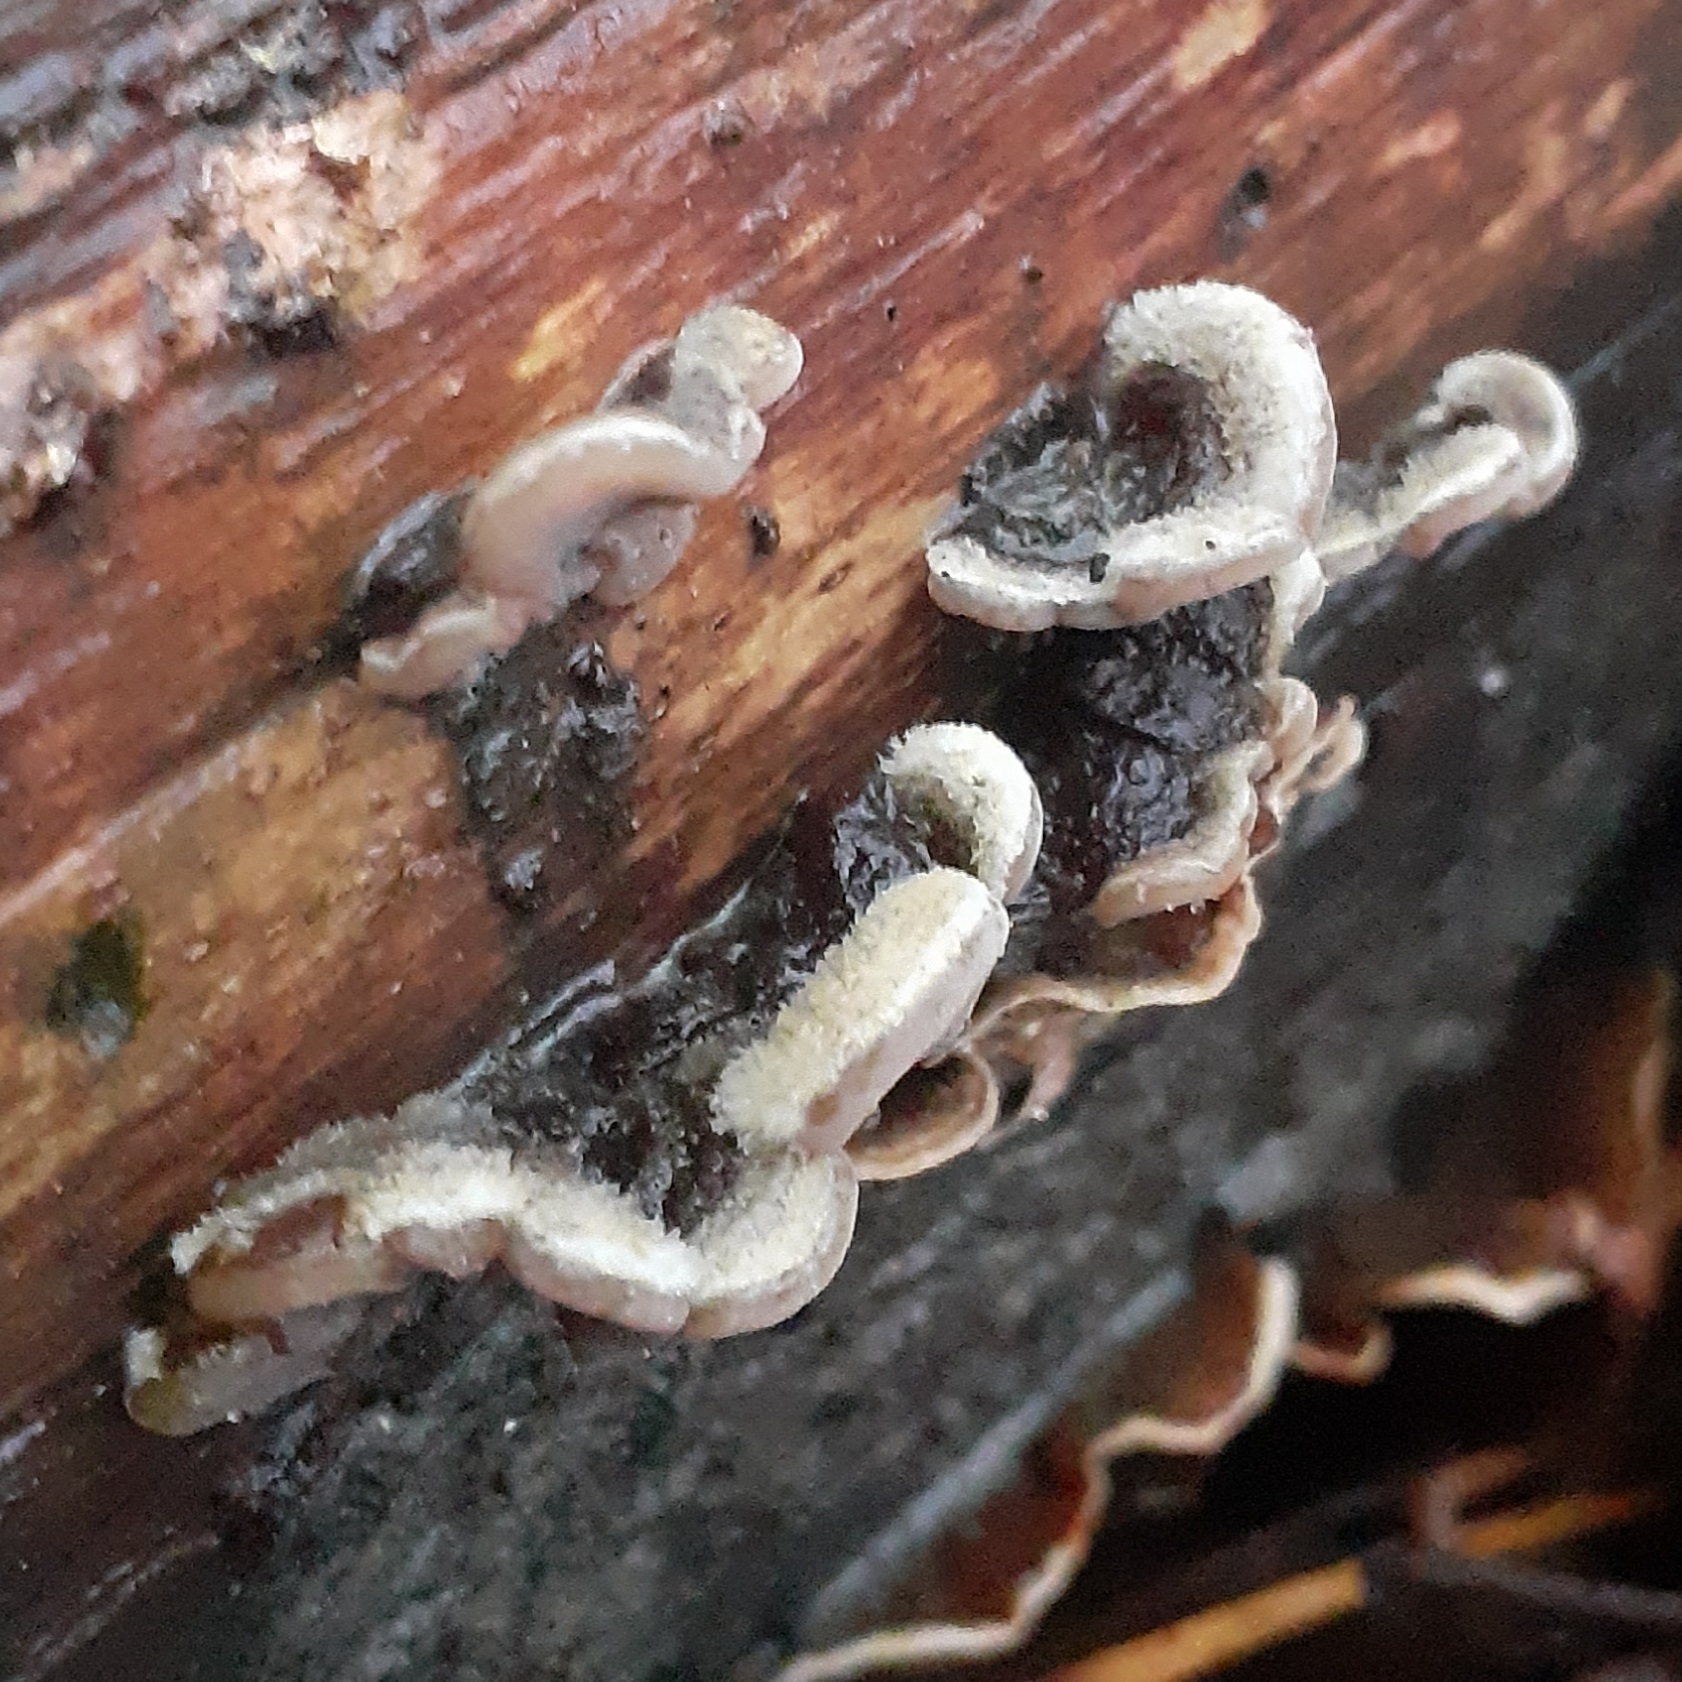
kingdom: Fungi
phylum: Basidiomycota
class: Agaricomycetes
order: Auriculariales
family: Auriculariaceae
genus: Auricularia
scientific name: Auricularia mesenterica
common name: Tripe fungus
